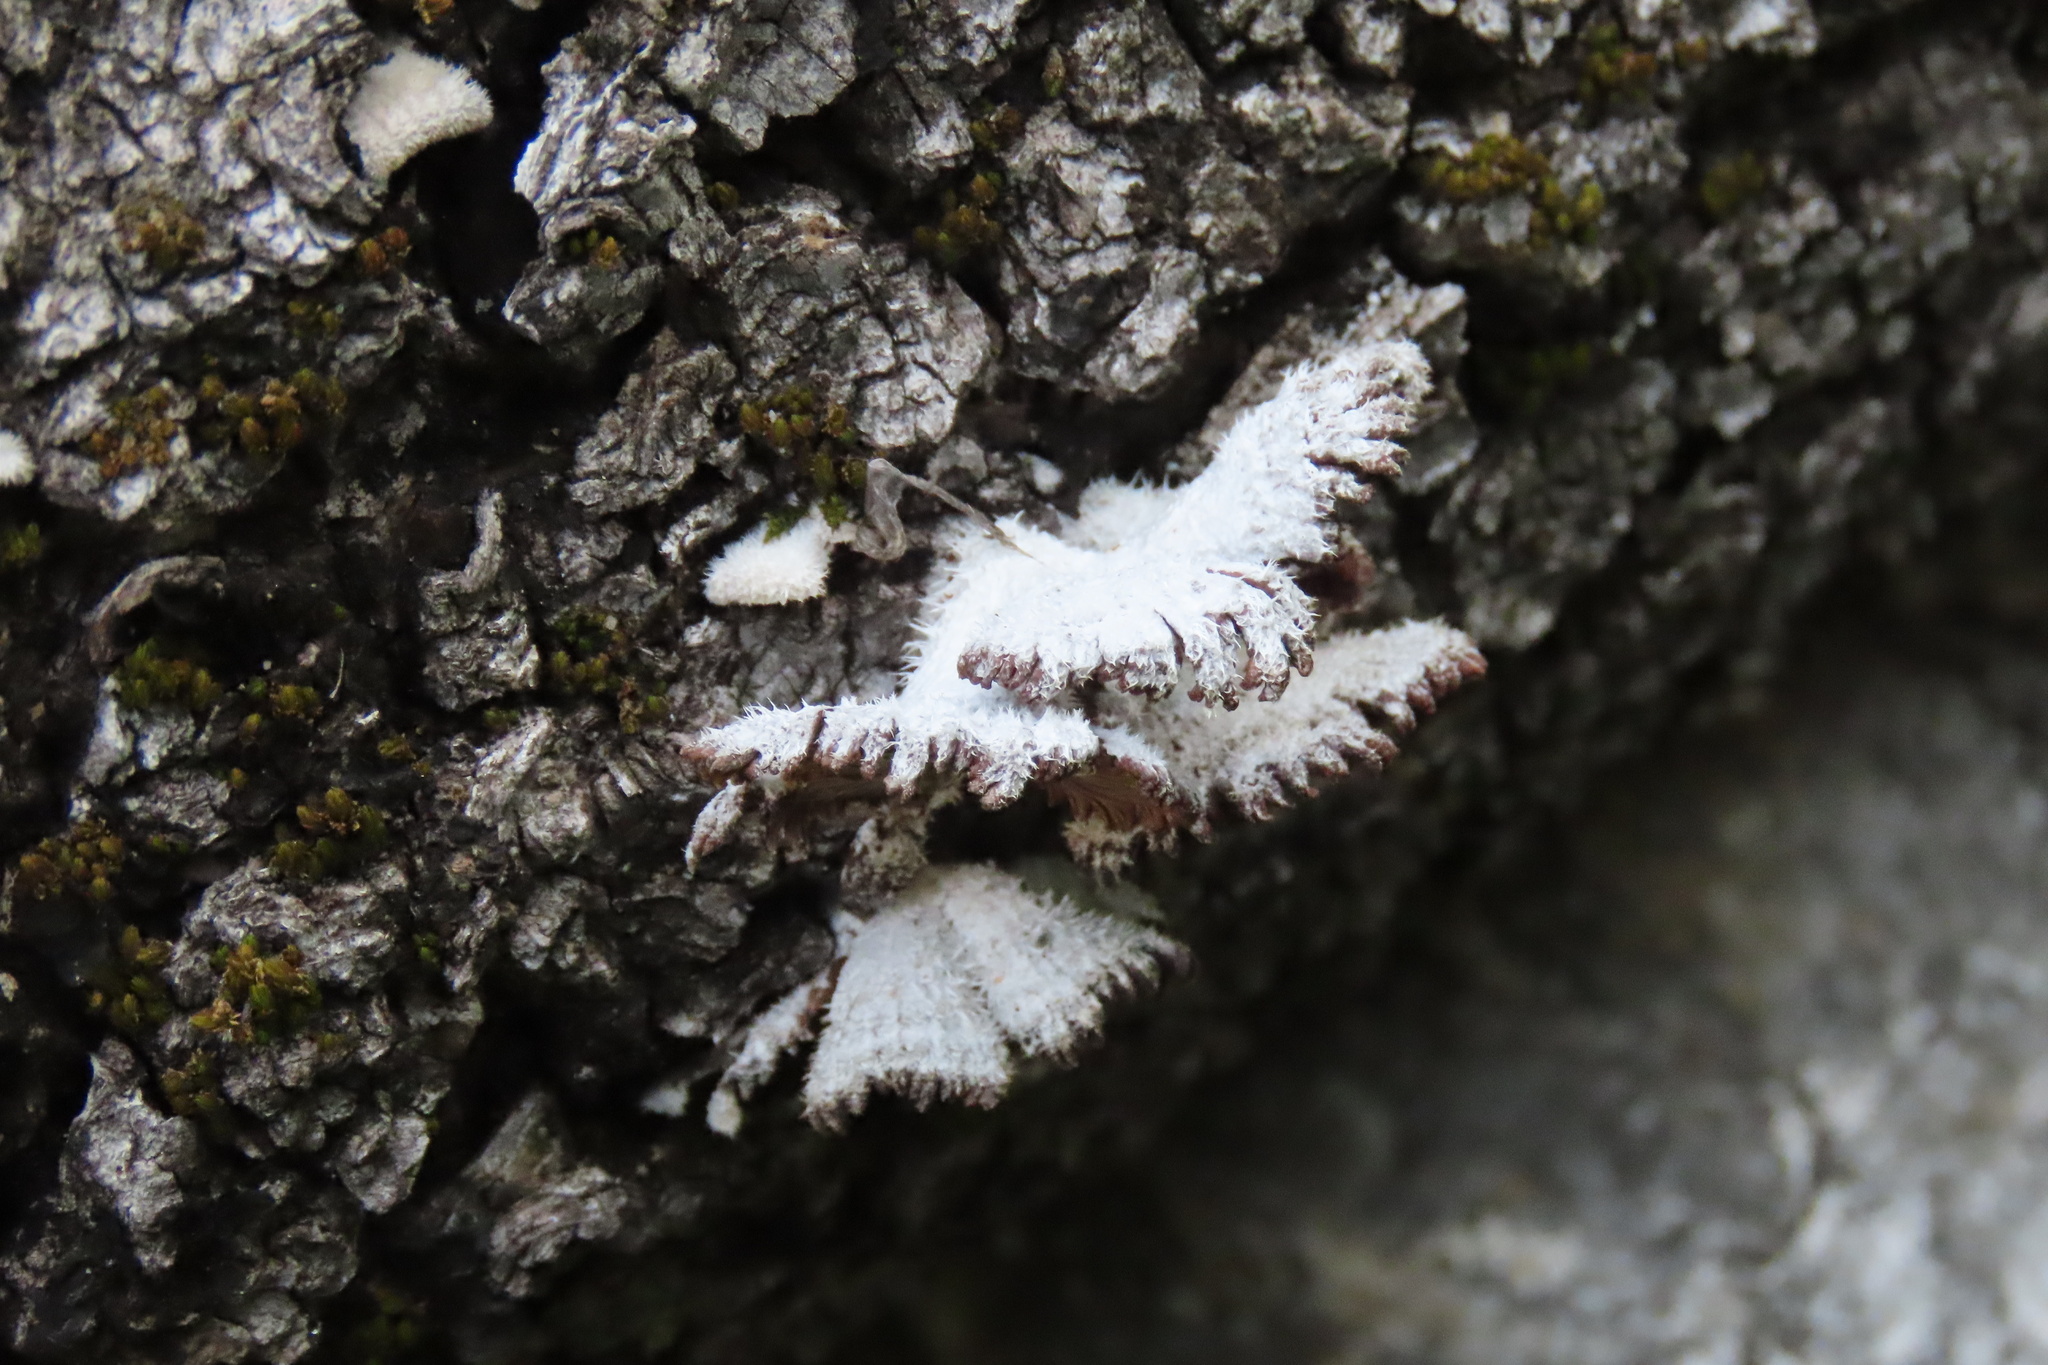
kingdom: Fungi
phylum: Basidiomycota
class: Agaricomycetes
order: Agaricales
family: Schizophyllaceae
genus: Schizophyllum
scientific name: Schizophyllum commune
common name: Common porecrust
